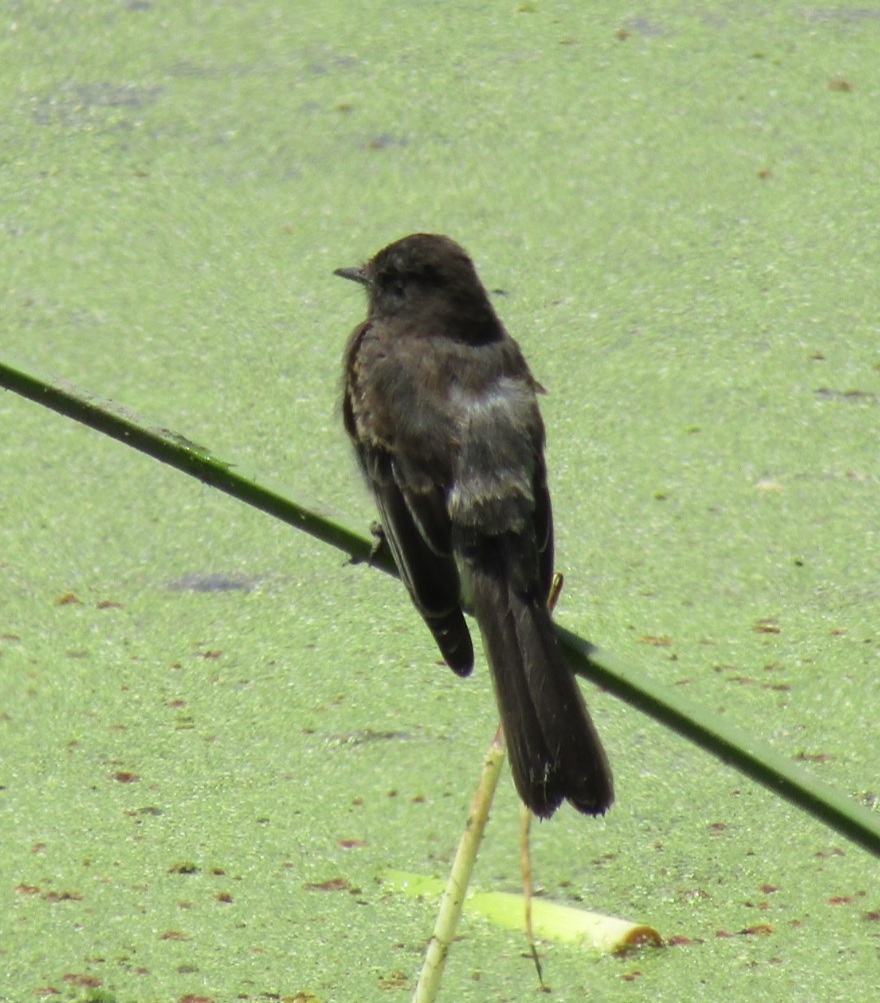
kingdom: Animalia
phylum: Chordata
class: Aves
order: Passeriformes
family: Tyrannidae
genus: Sayornis
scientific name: Sayornis nigricans
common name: Black phoebe
